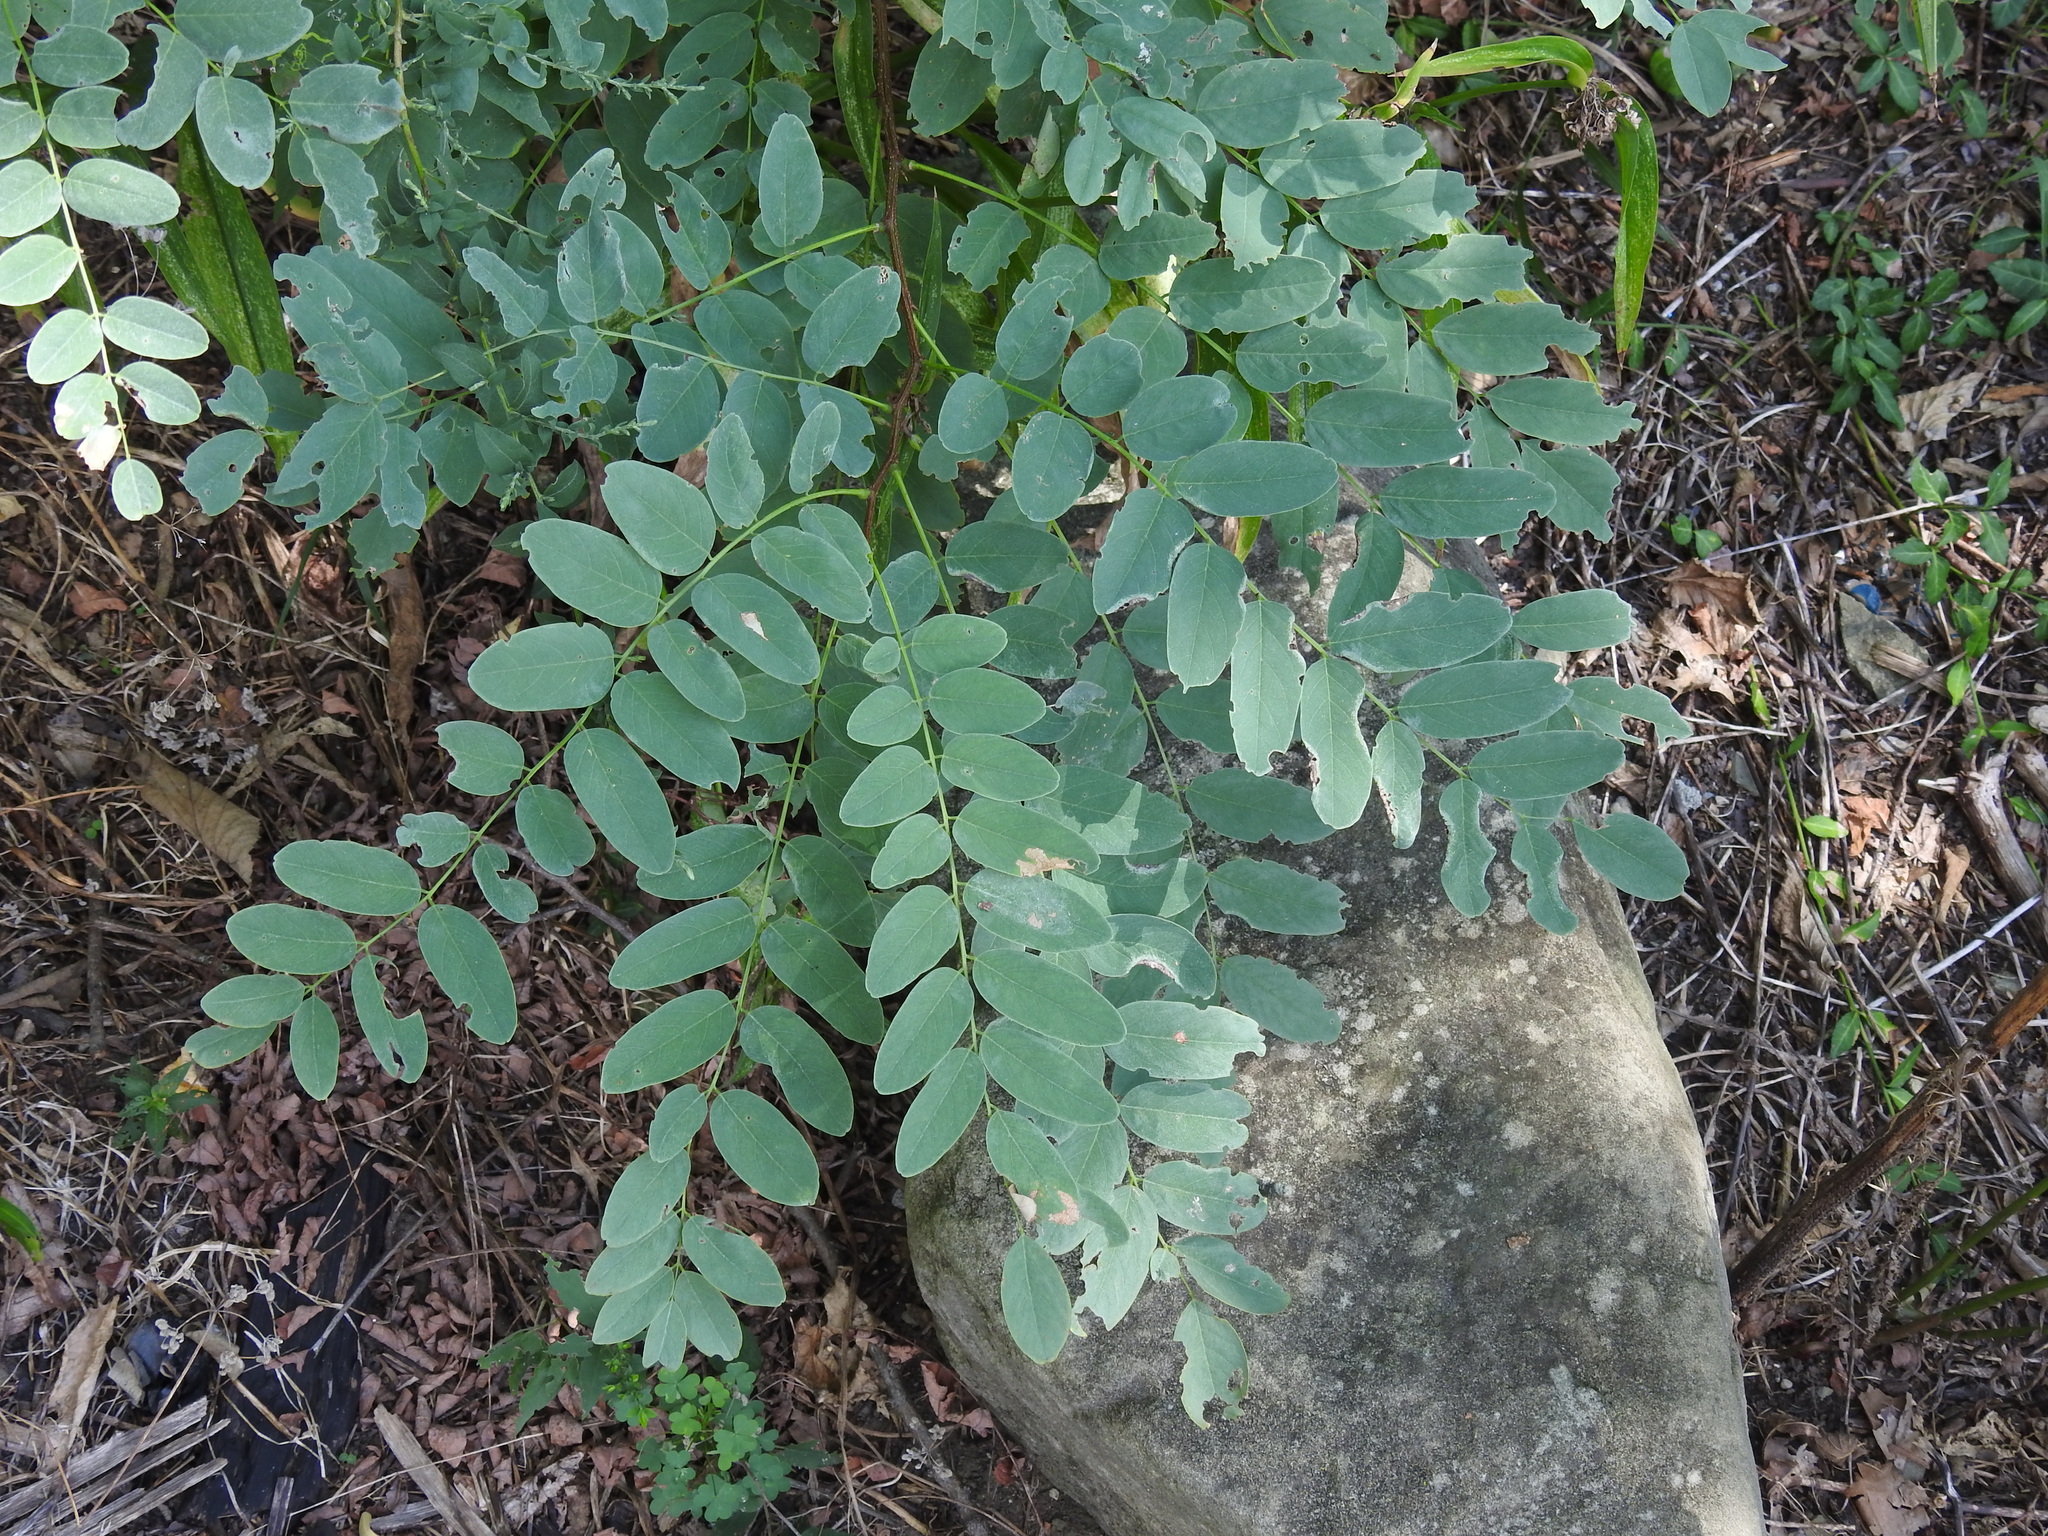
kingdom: Plantae
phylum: Tracheophyta
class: Magnoliopsida
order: Fabales
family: Fabaceae
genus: Robinia
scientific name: Robinia pseudoacacia
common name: Black locust
